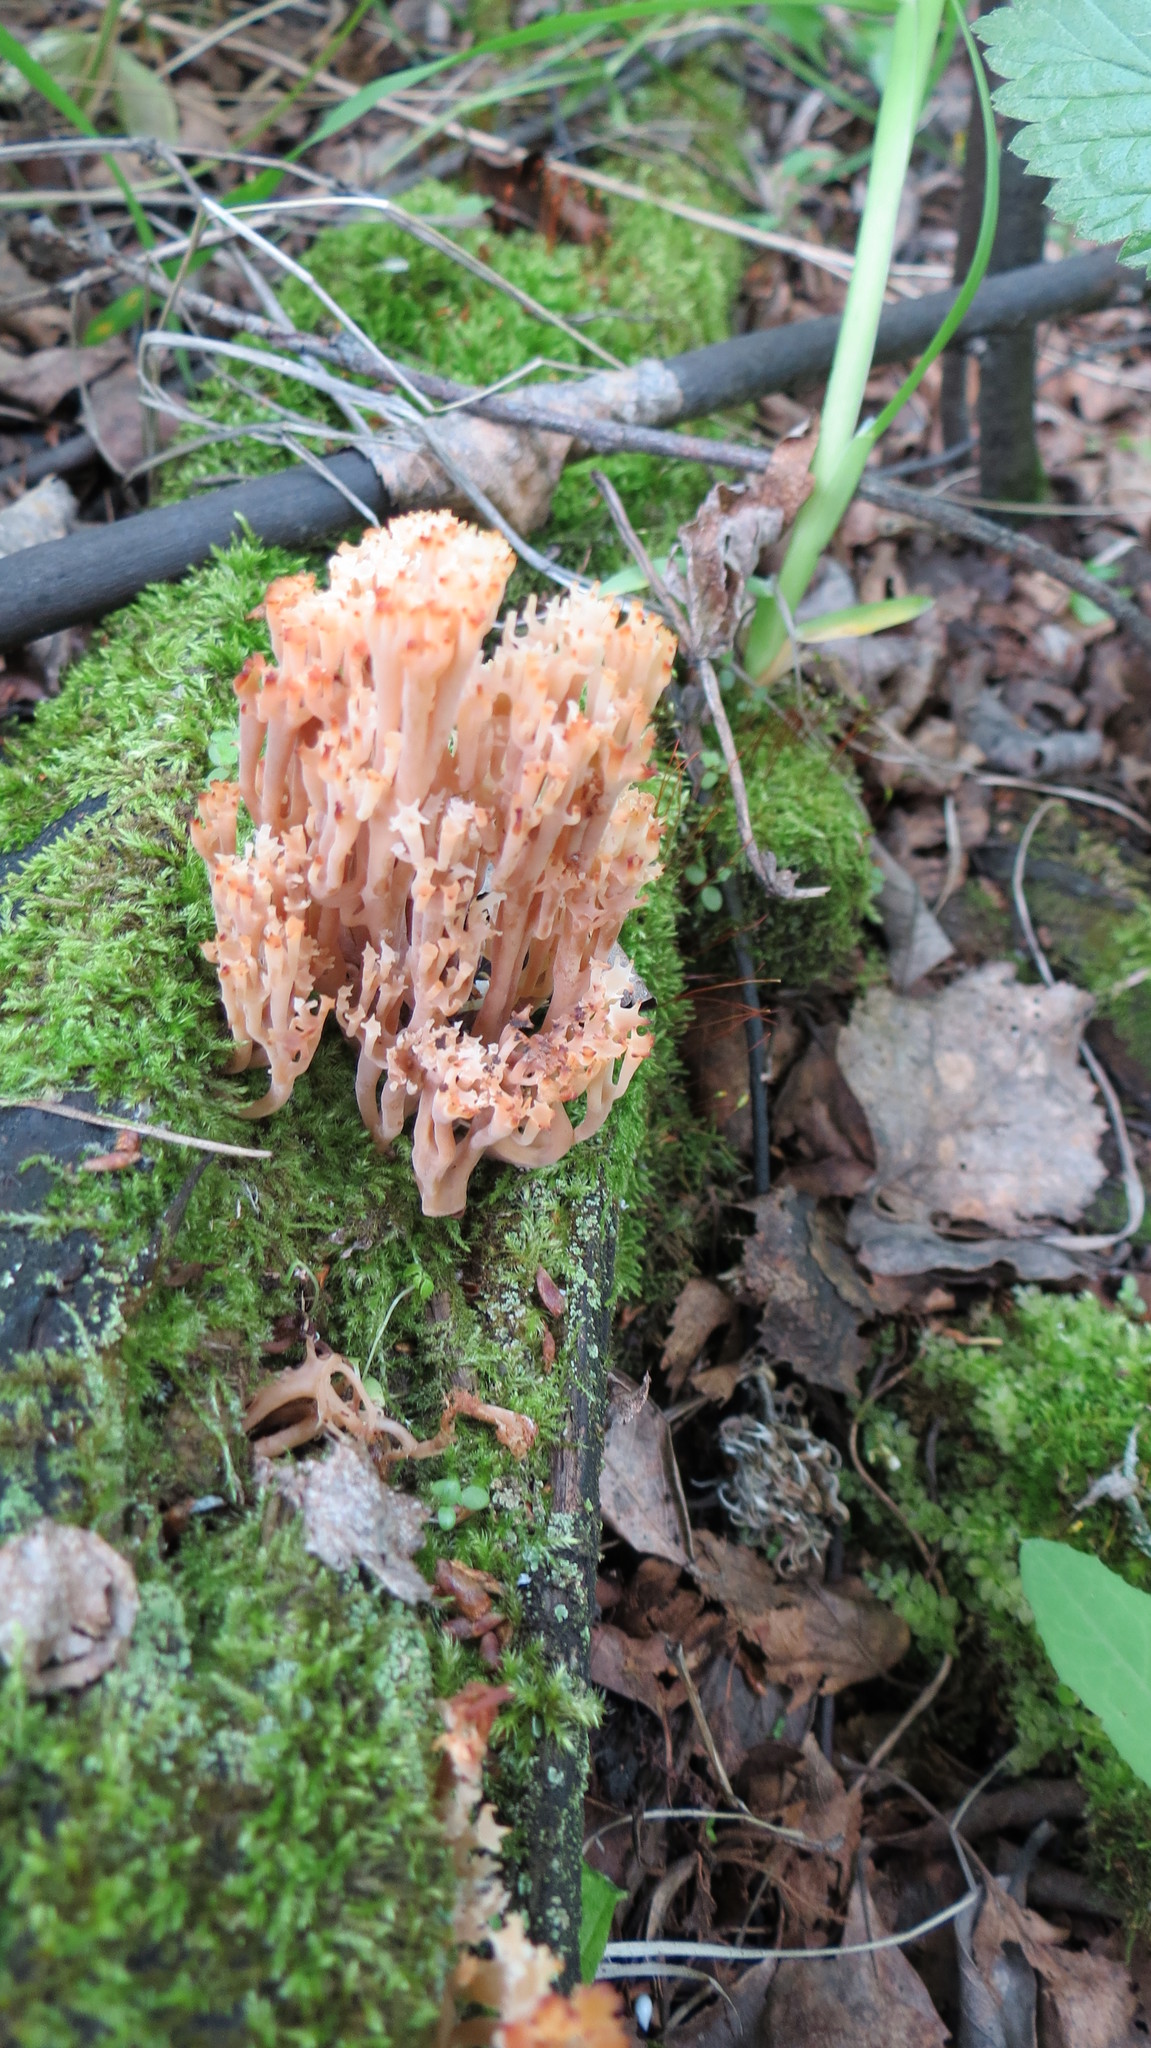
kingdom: Fungi
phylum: Basidiomycota
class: Agaricomycetes
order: Russulales
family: Auriscalpiaceae
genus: Artomyces
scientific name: Artomyces pyxidatus
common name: Crown-tipped coral fungus
